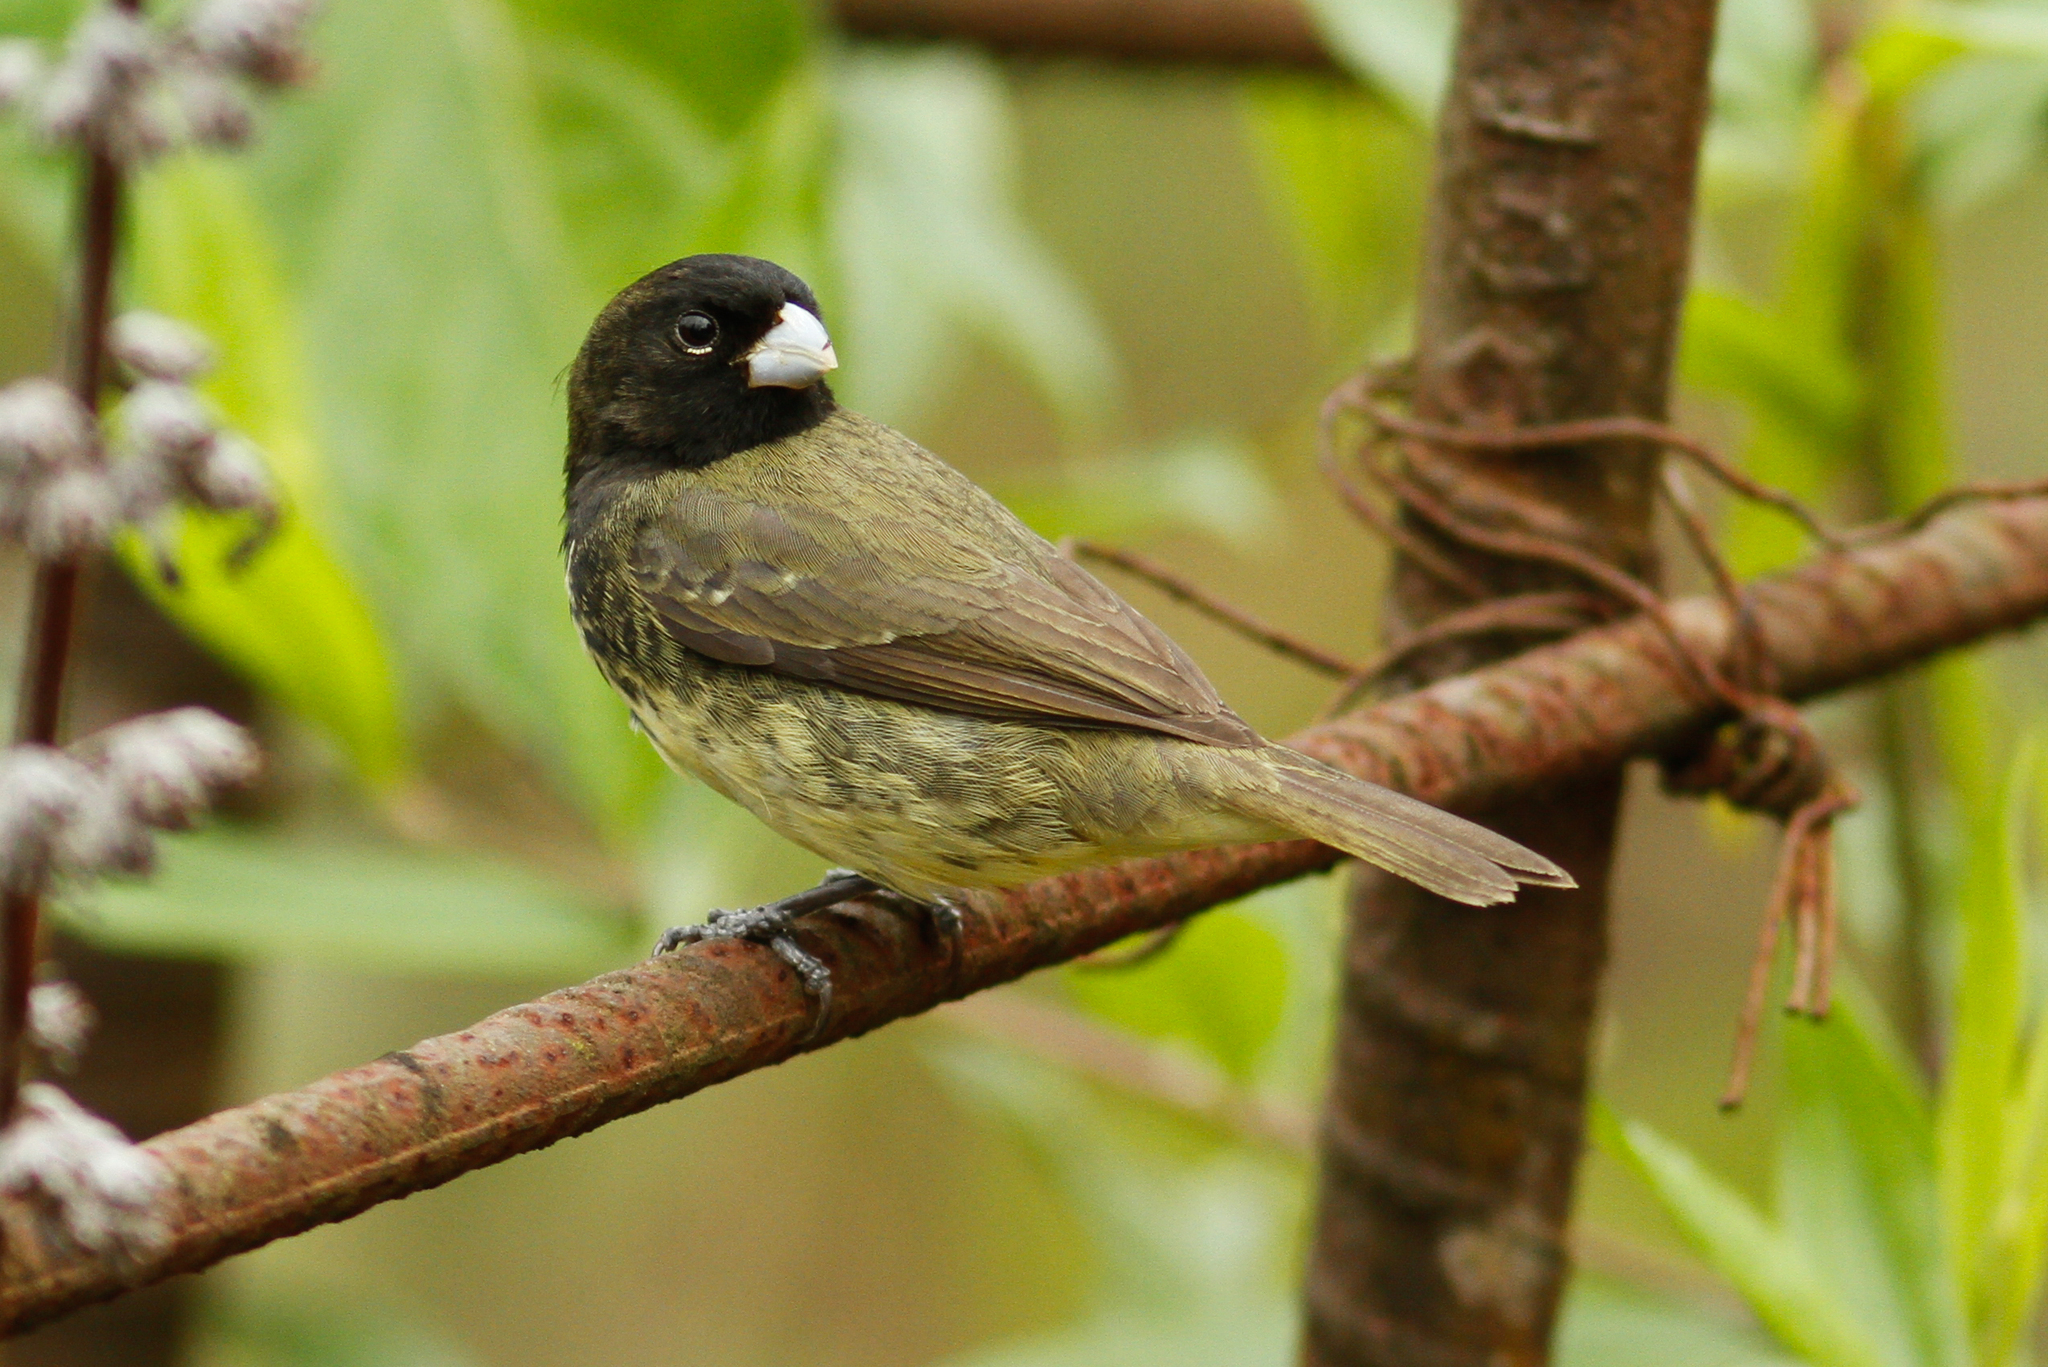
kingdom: Animalia
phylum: Chordata
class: Aves
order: Passeriformes
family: Thraupidae
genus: Sporophila
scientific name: Sporophila nigricollis
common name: Yellow-bellied seedeater
